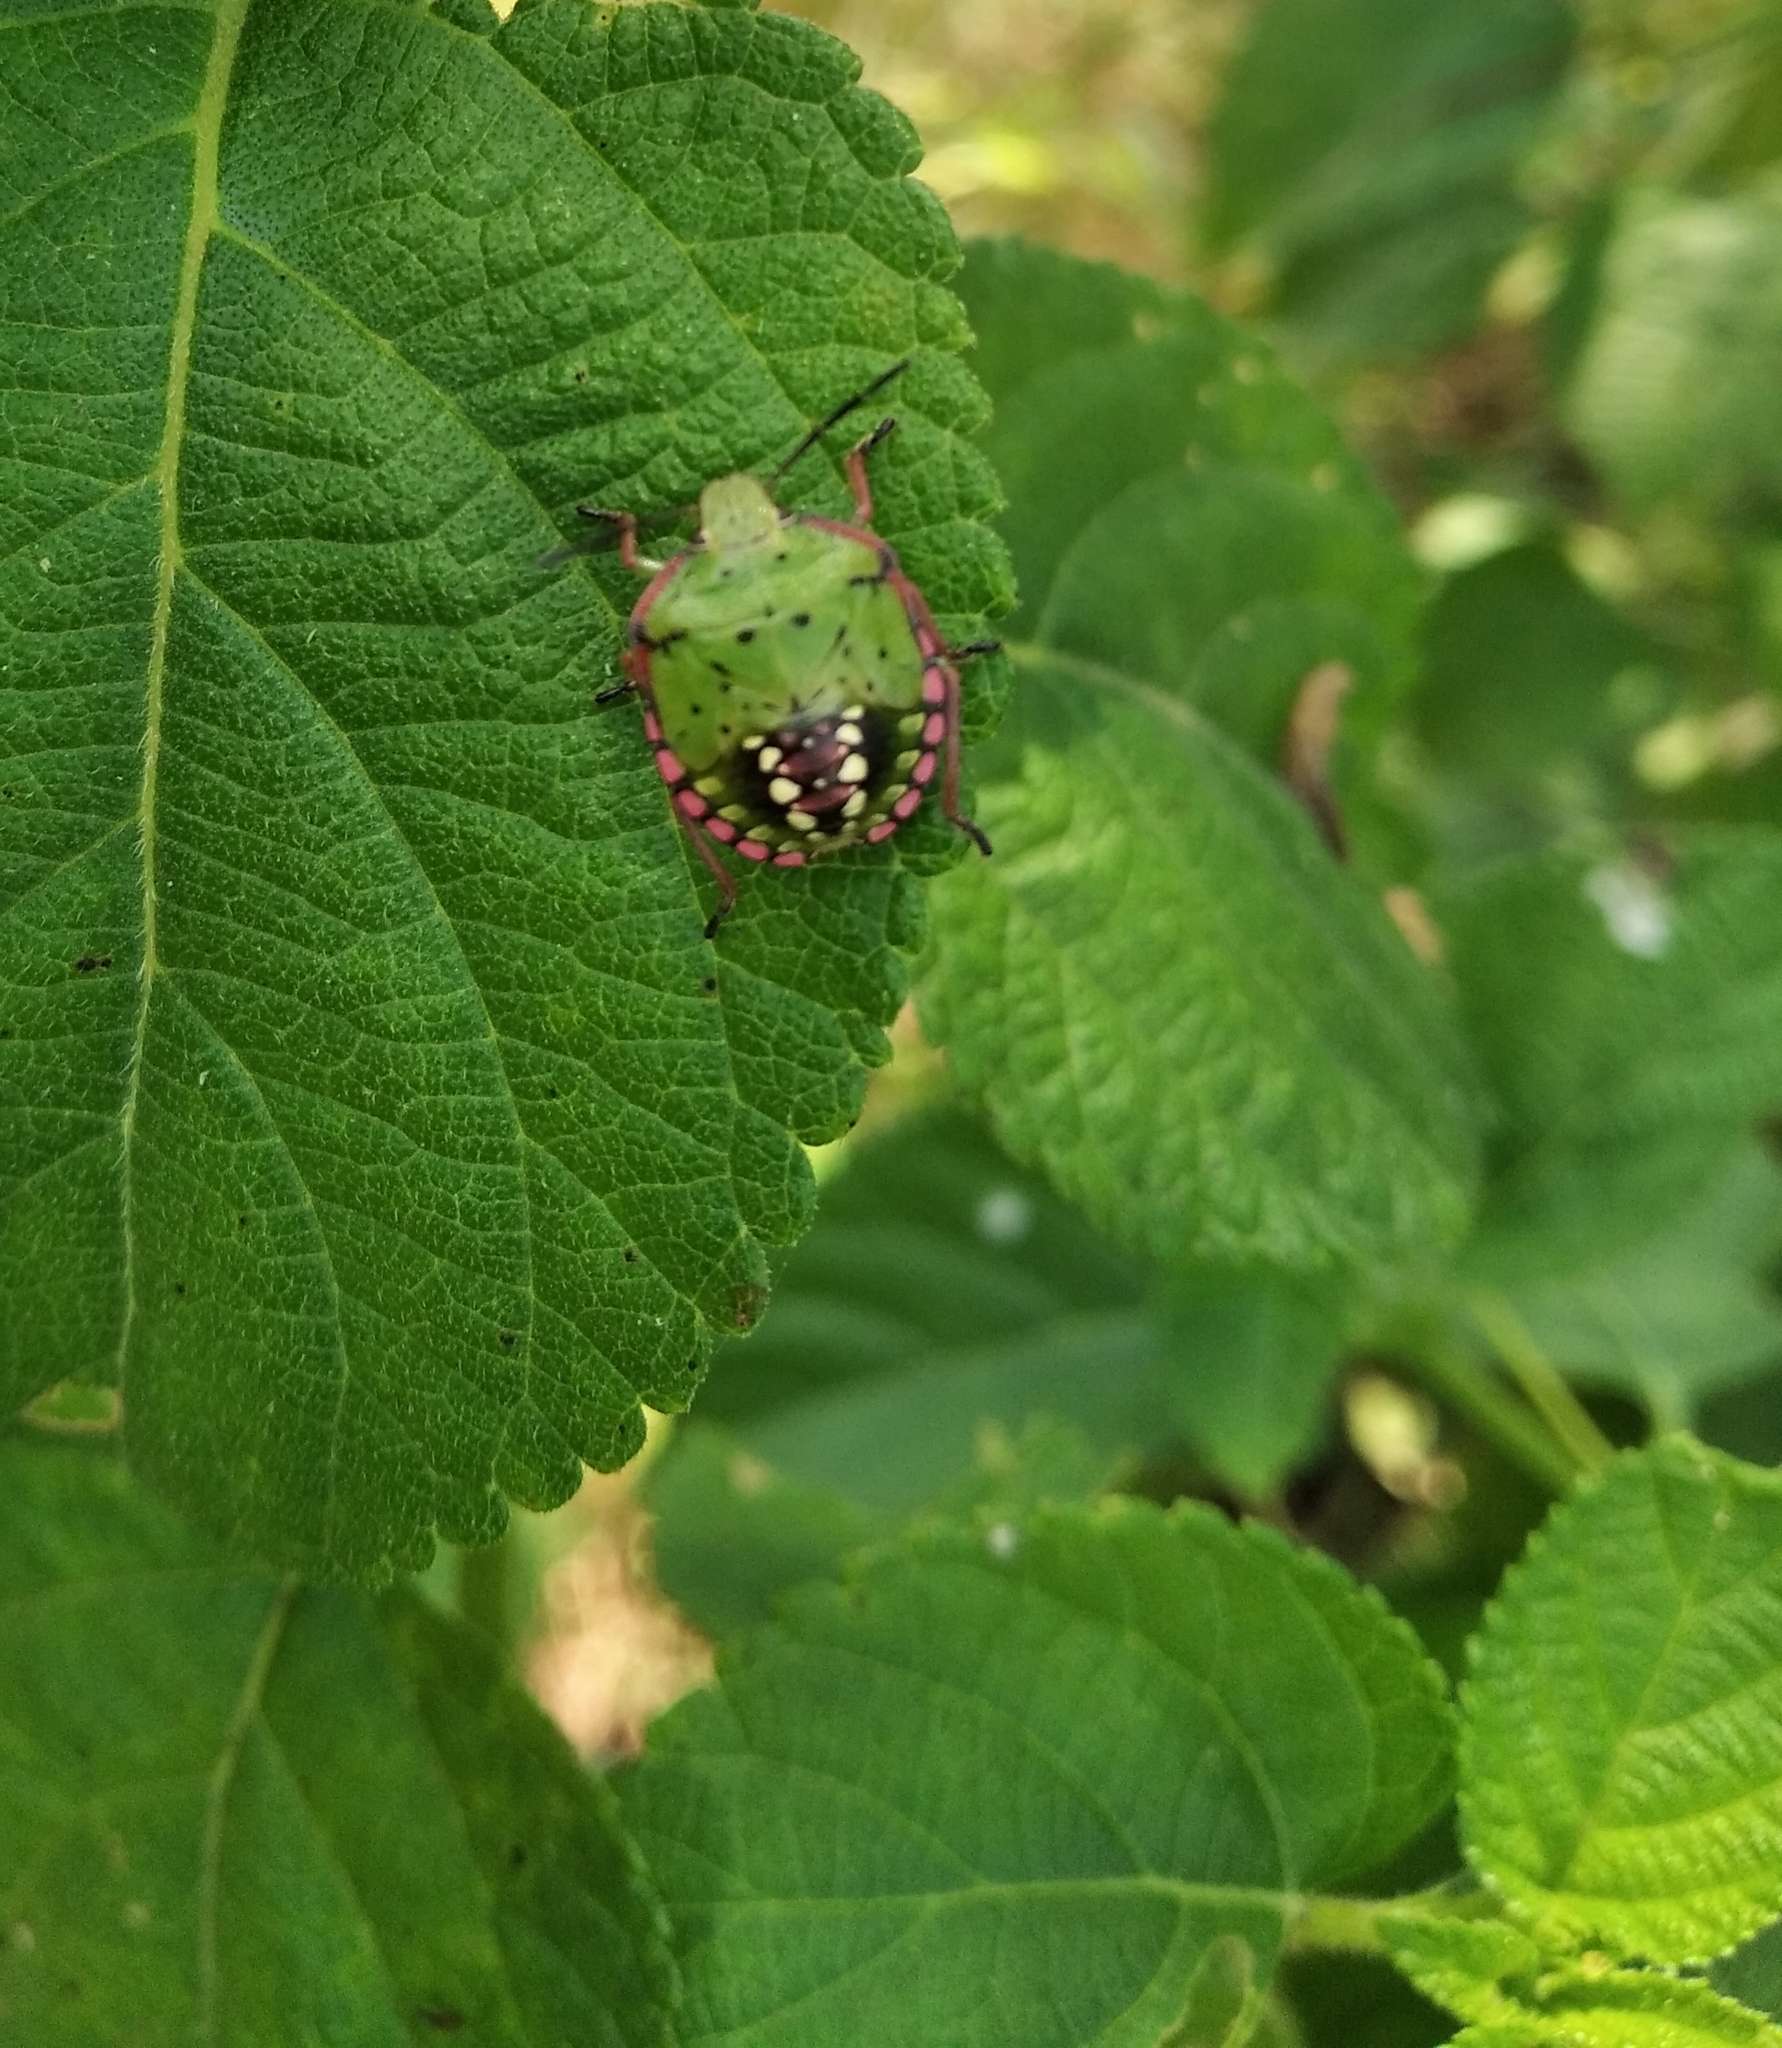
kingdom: Animalia
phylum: Arthropoda
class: Insecta
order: Hemiptera
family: Pentatomidae
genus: Nezara
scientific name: Nezara viridula
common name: Southern green stink bug
